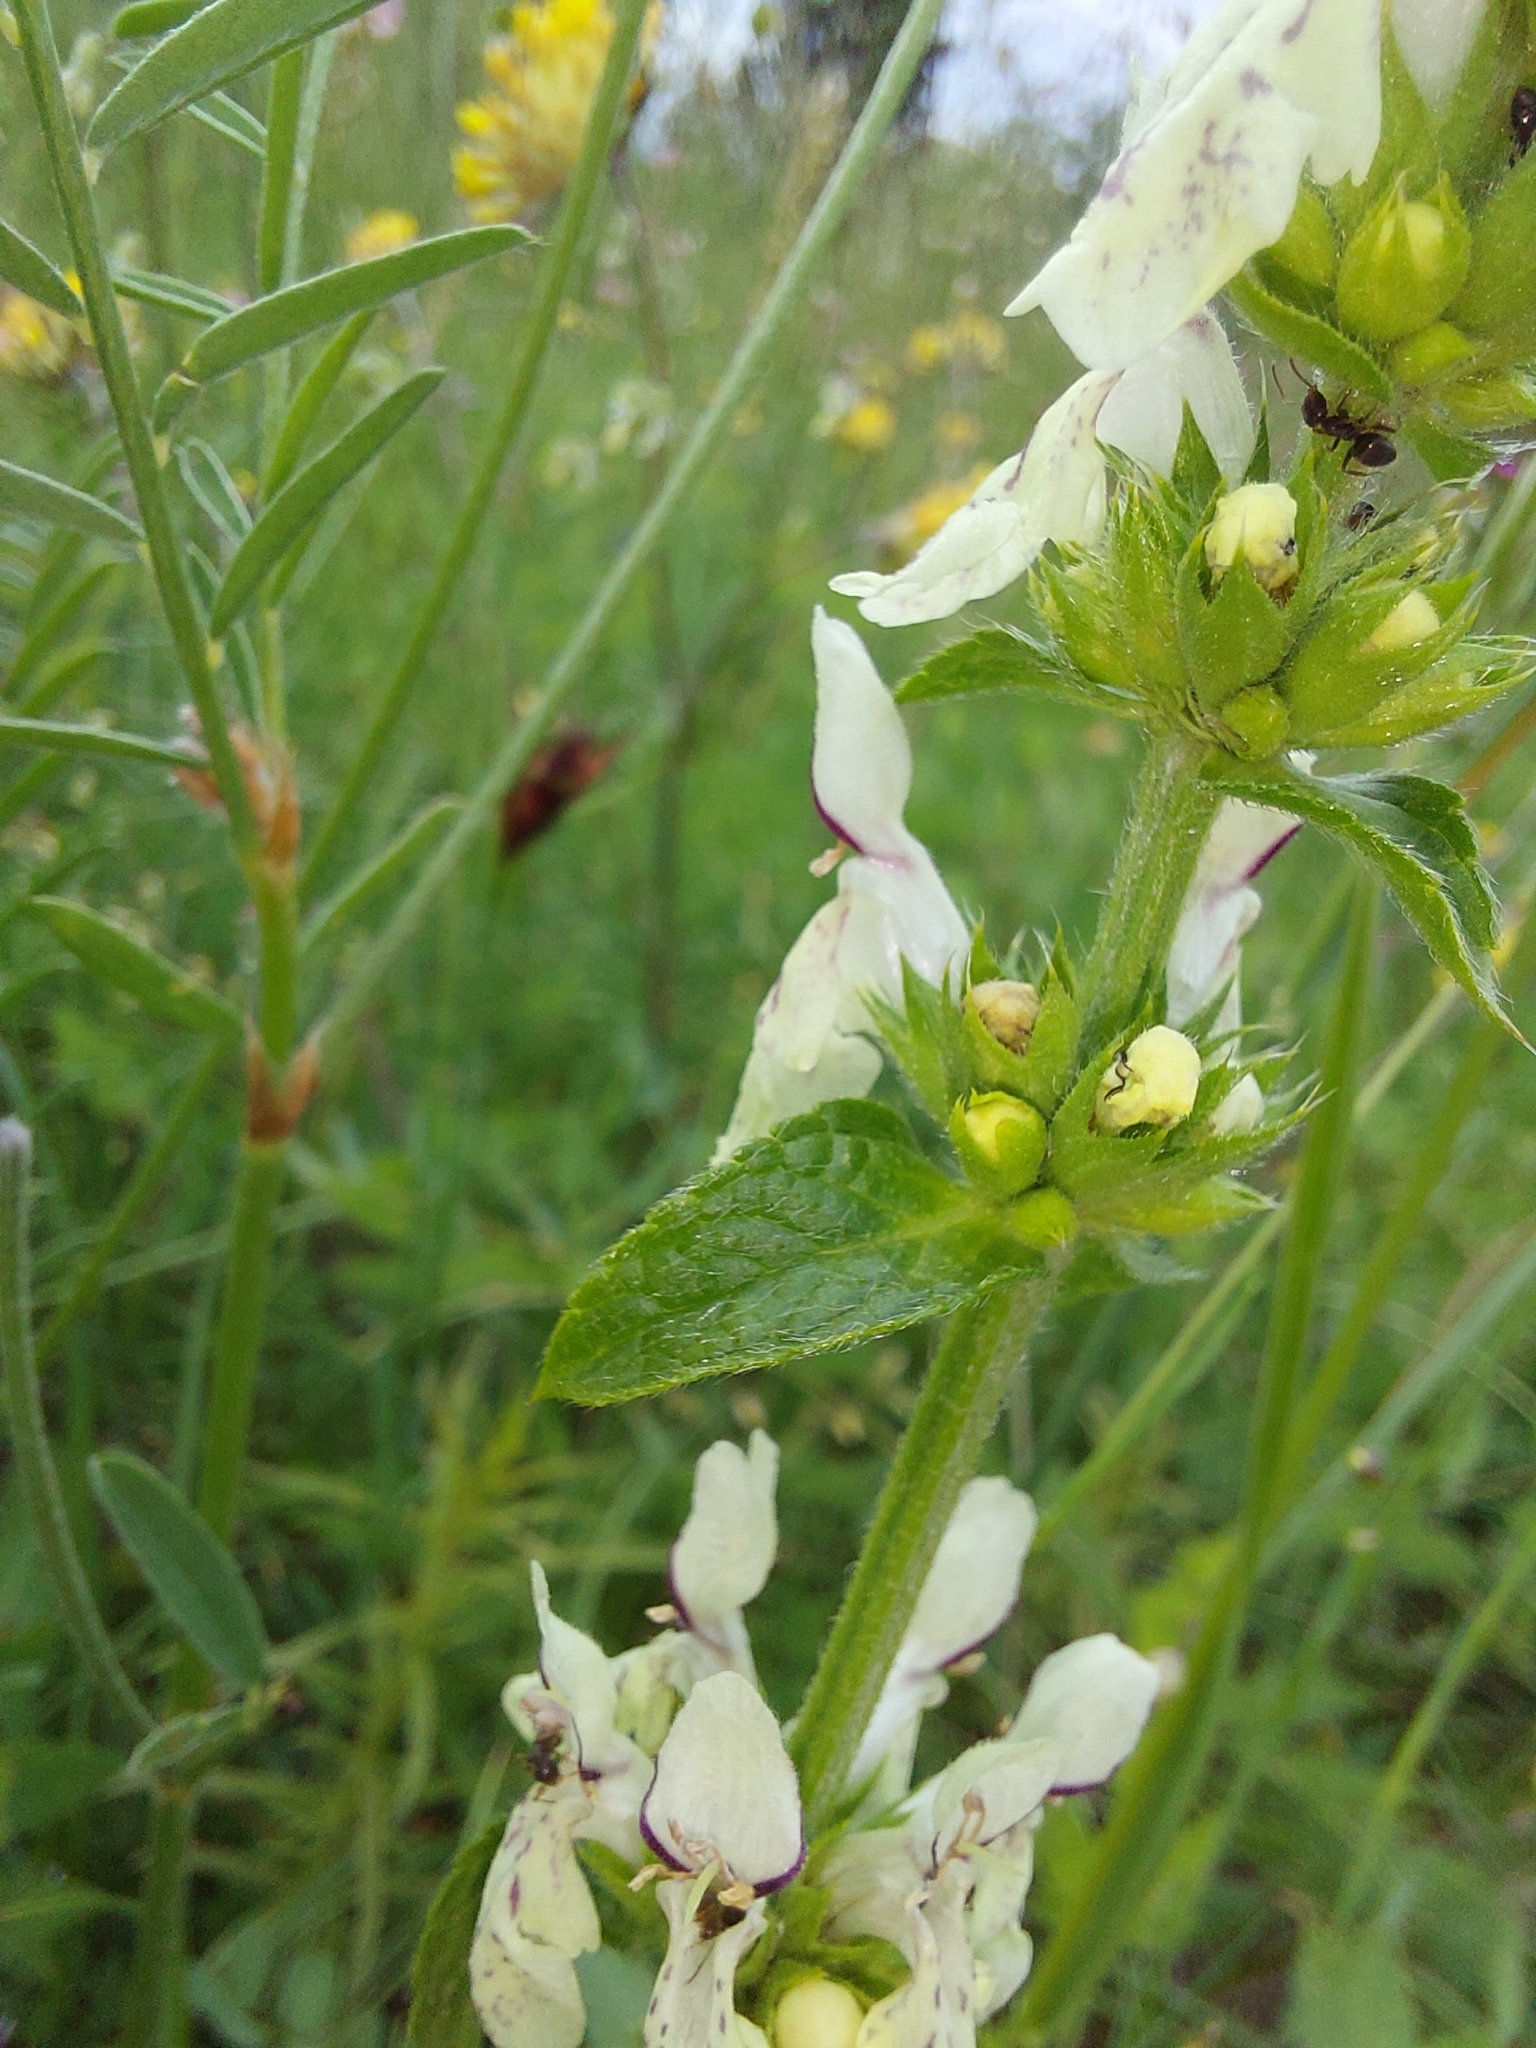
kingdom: Plantae
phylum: Tracheophyta
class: Magnoliopsida
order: Lamiales
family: Lamiaceae
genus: Stachys
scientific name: Stachys recta
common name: Perennial yellow-woundwort
